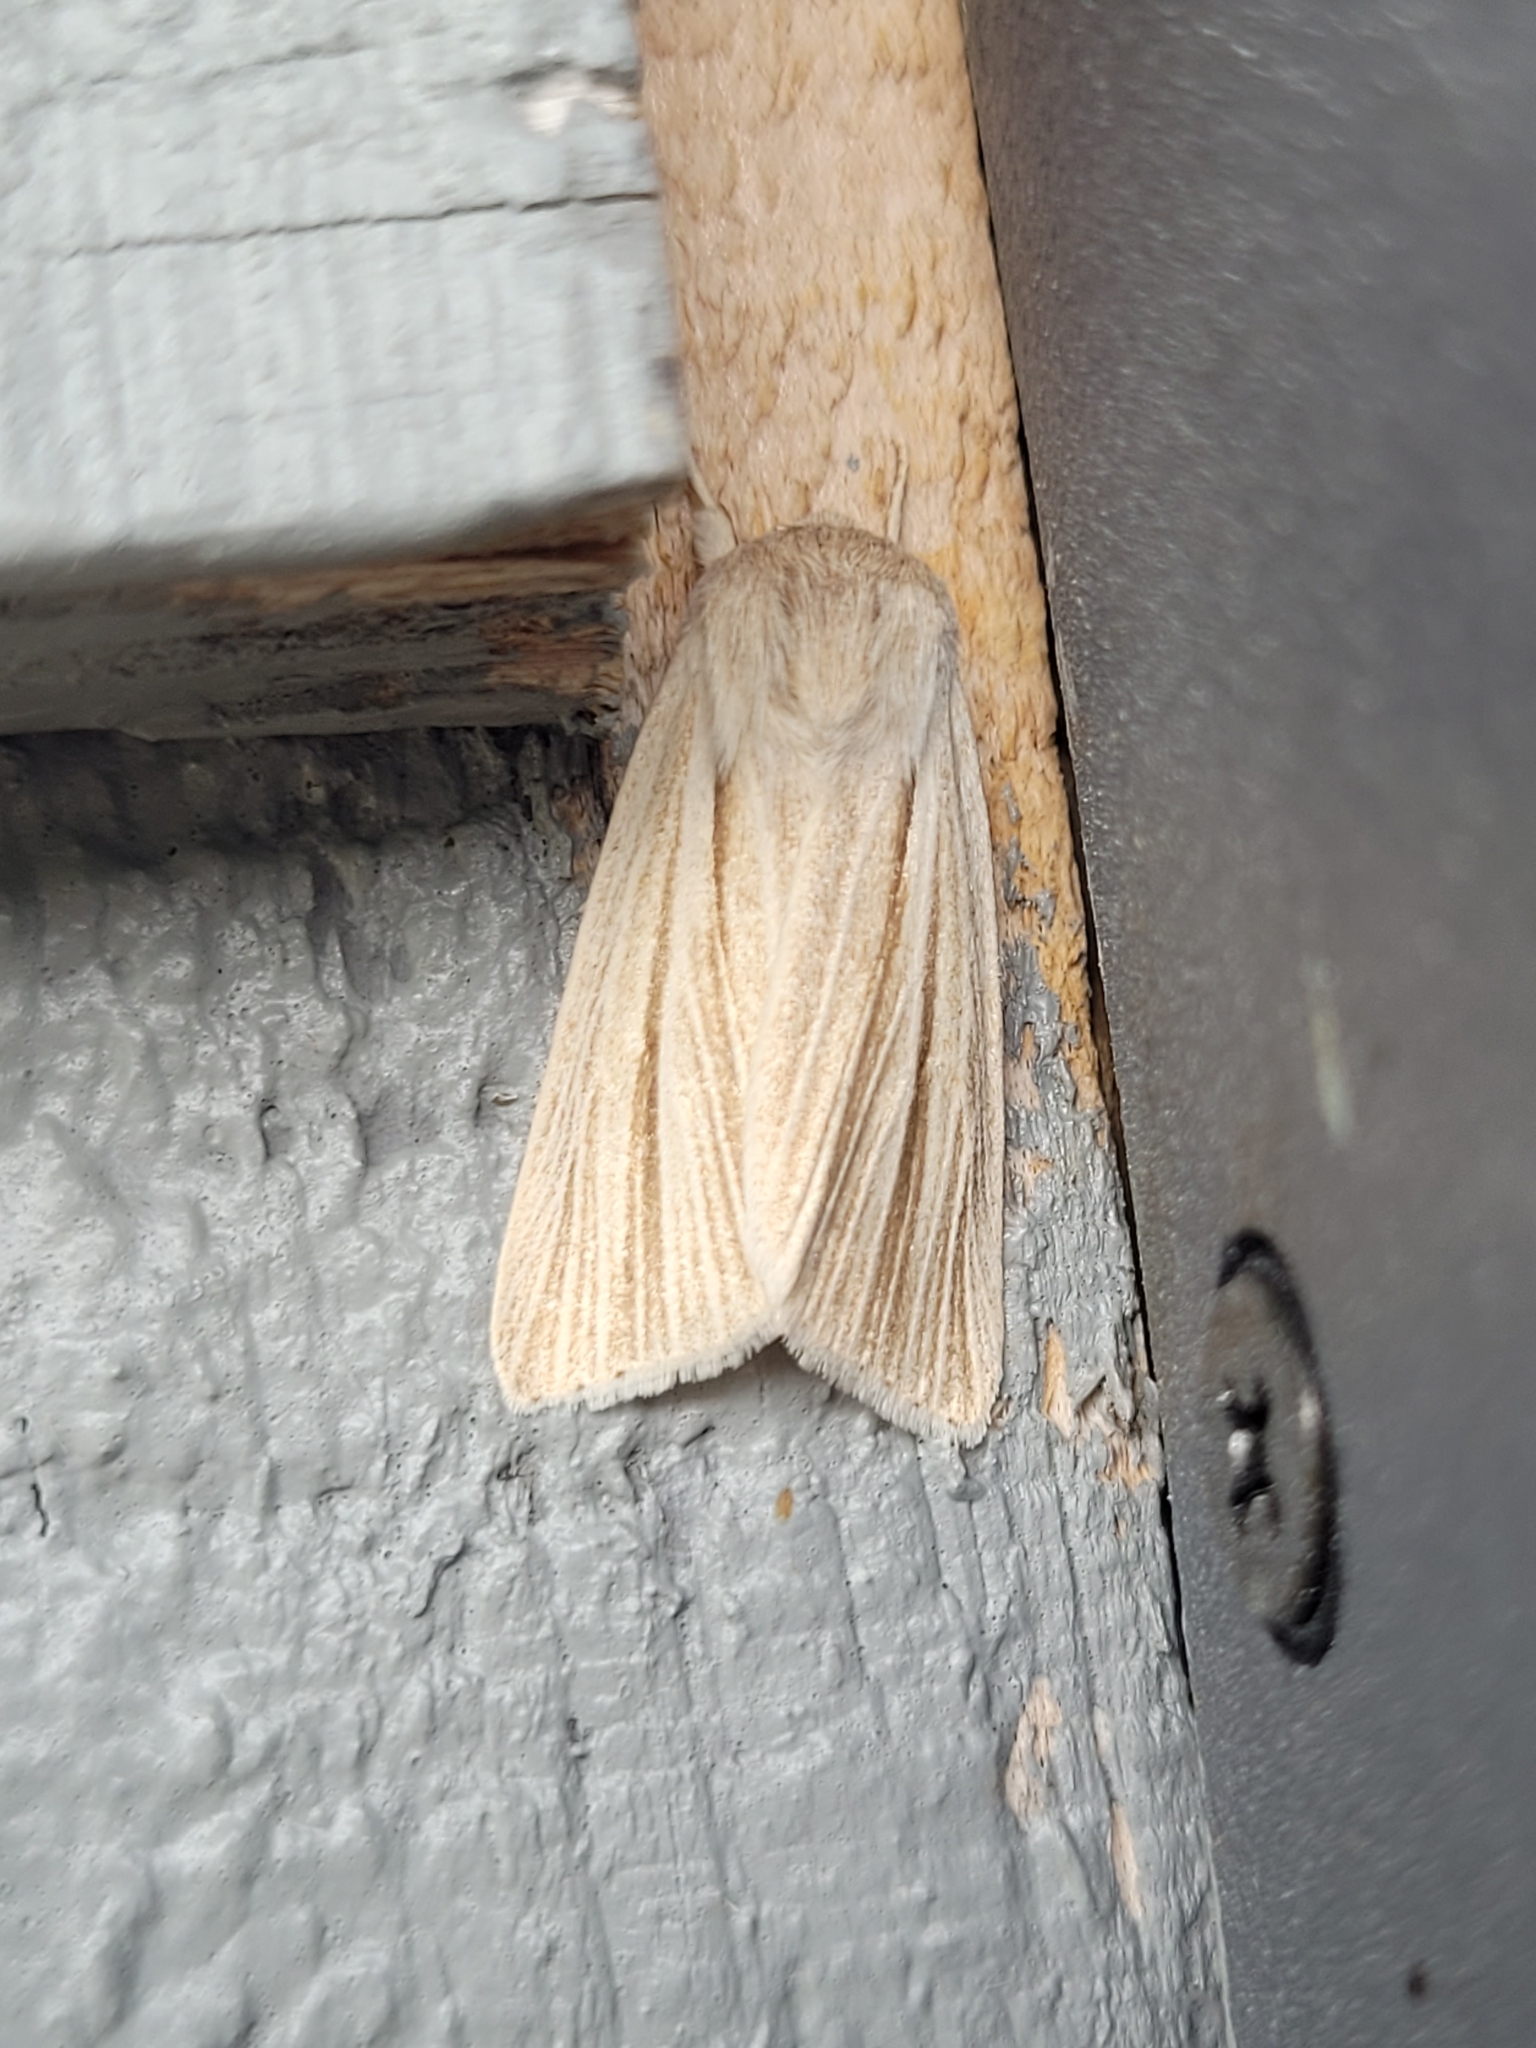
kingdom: Animalia
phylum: Arthropoda
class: Insecta
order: Lepidoptera
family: Noctuidae
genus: Acronicta
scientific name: Acronicta insularis
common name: Henry's marsh moth
